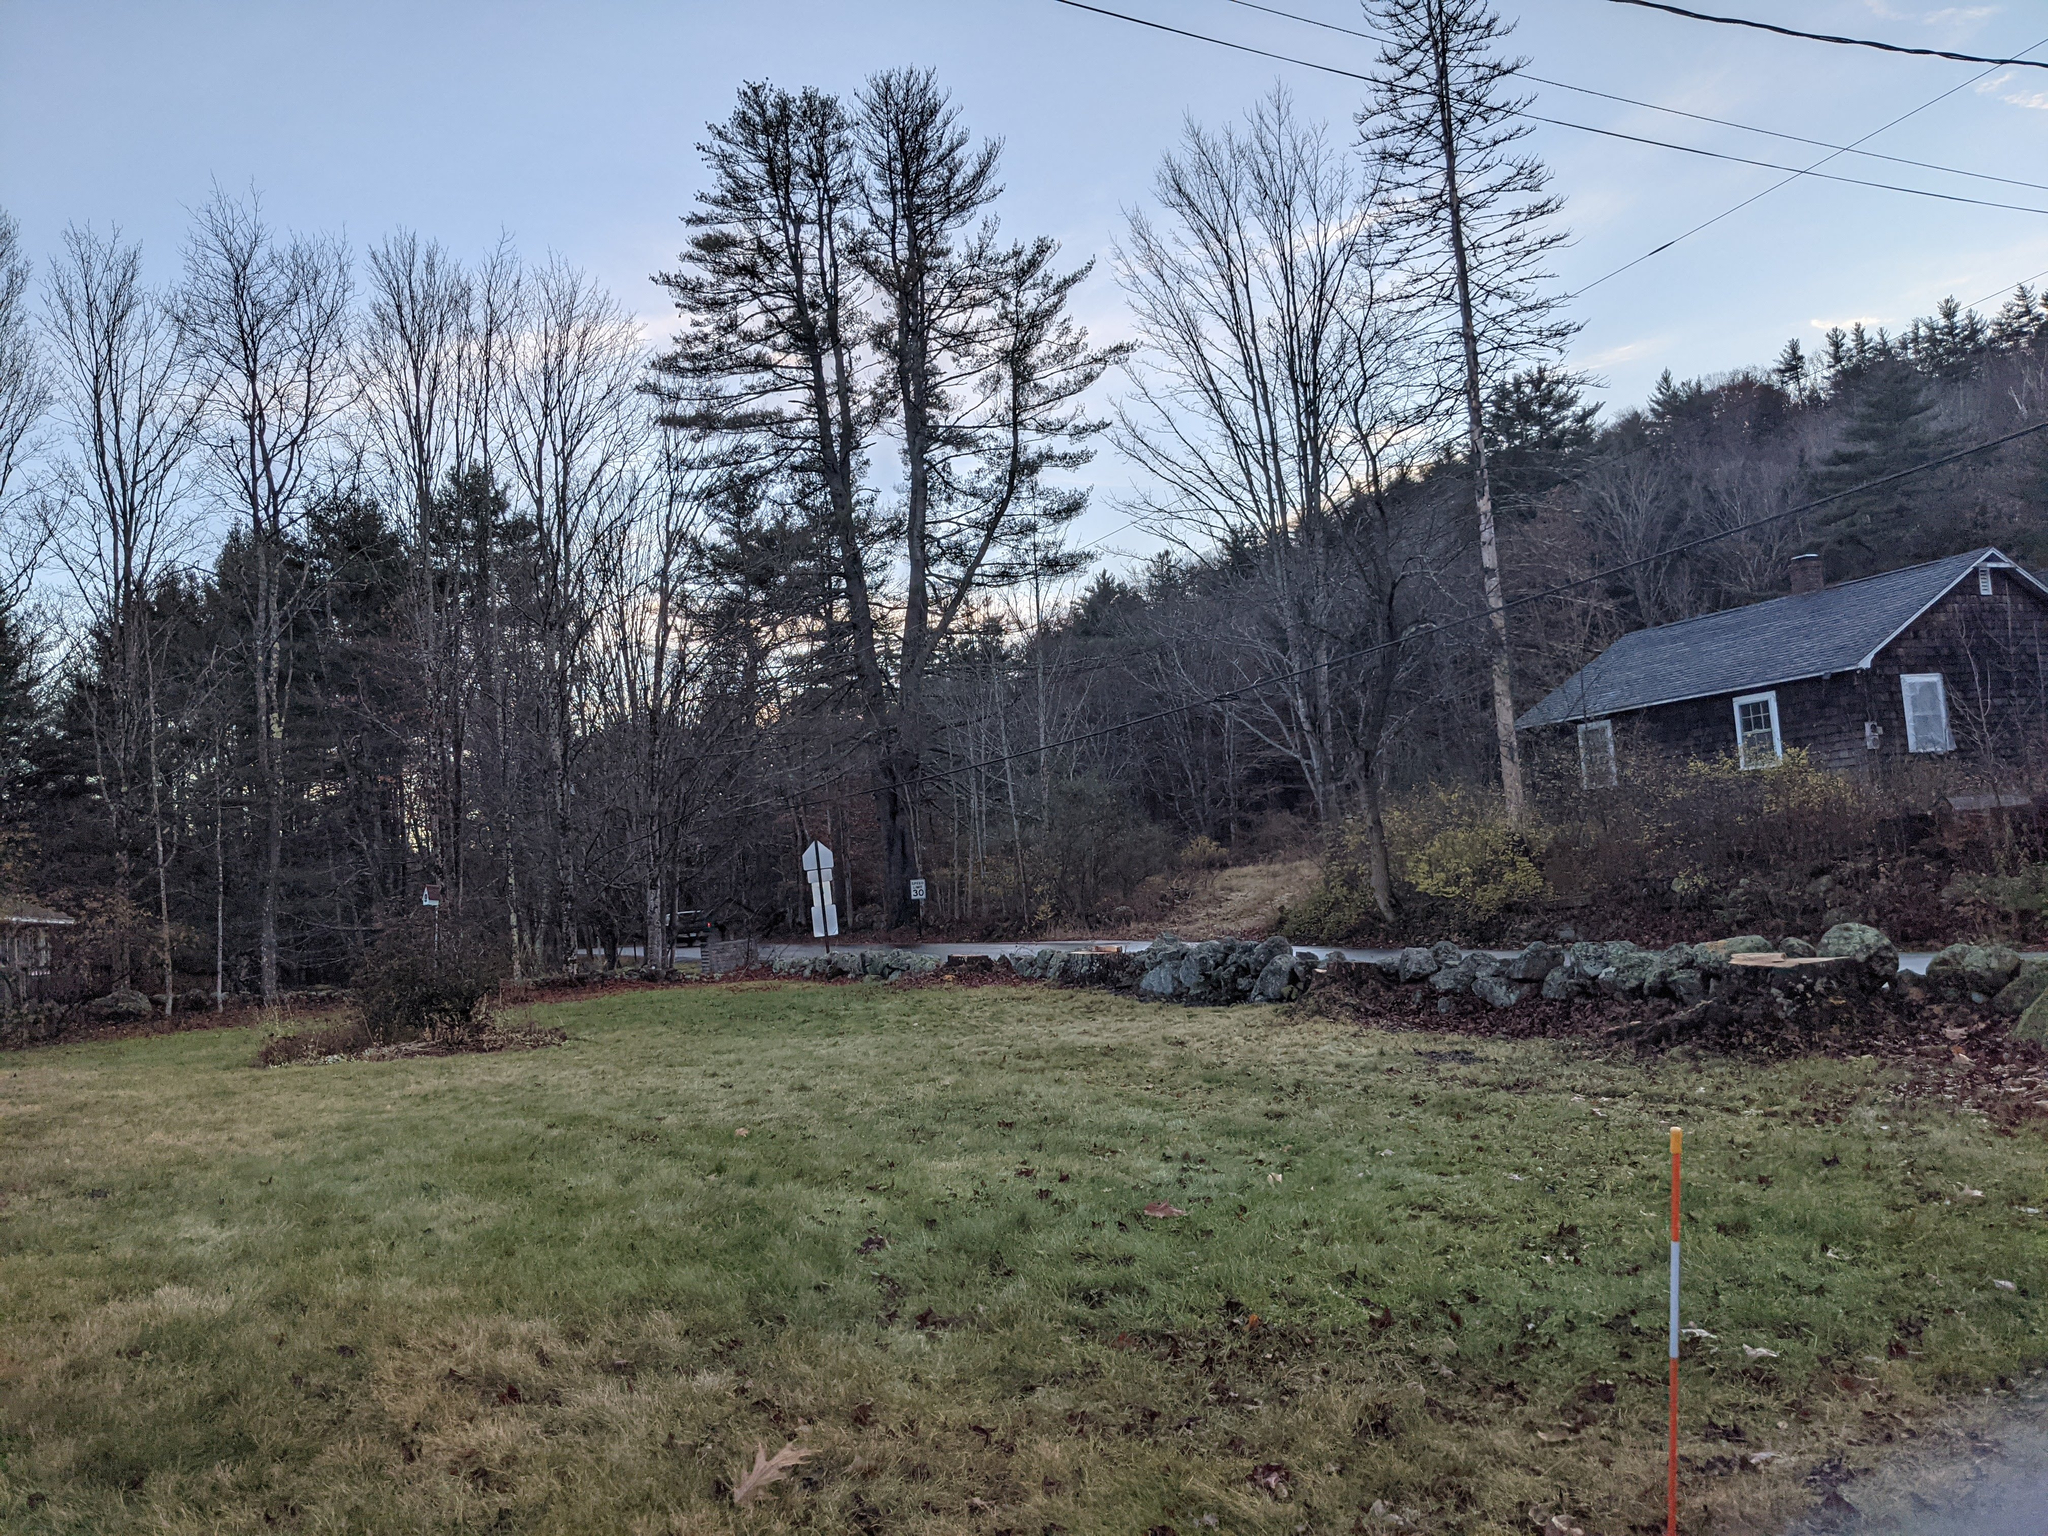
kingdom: Plantae
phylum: Tracheophyta
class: Pinopsida
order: Pinales
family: Pinaceae
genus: Pinus
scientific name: Pinus strobus
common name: Weymouth pine
